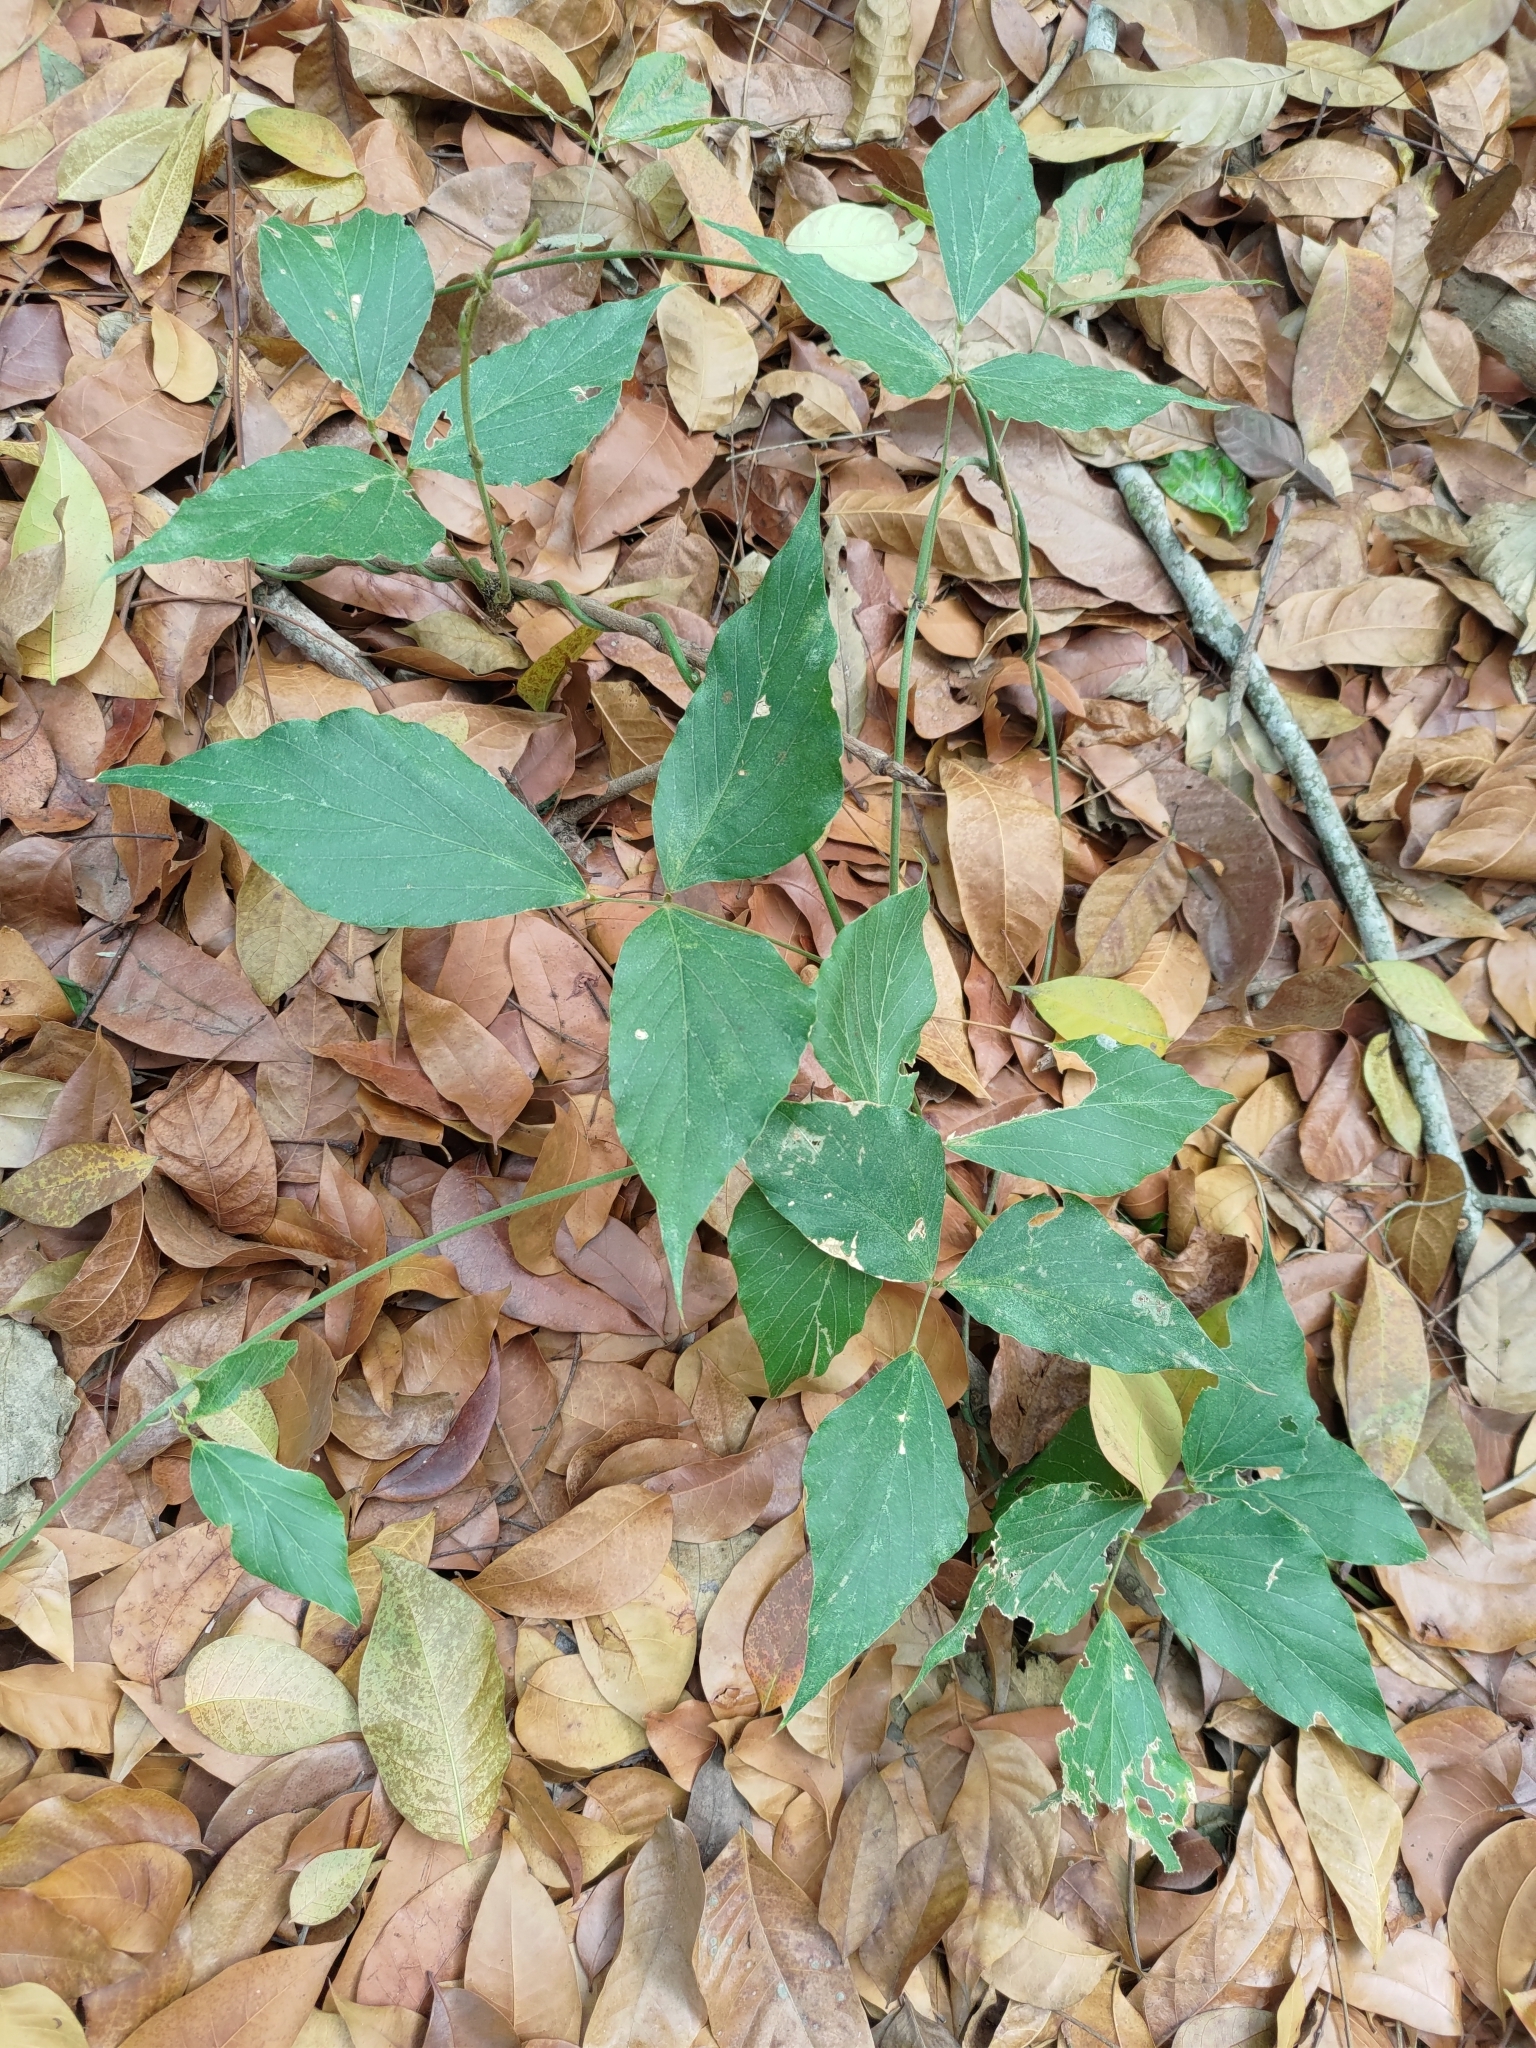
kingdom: Plantae
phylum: Tracheophyta
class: Magnoliopsida
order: Fabales
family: Fabaceae
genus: Pueraria
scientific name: Pueraria montana
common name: Kudzu
